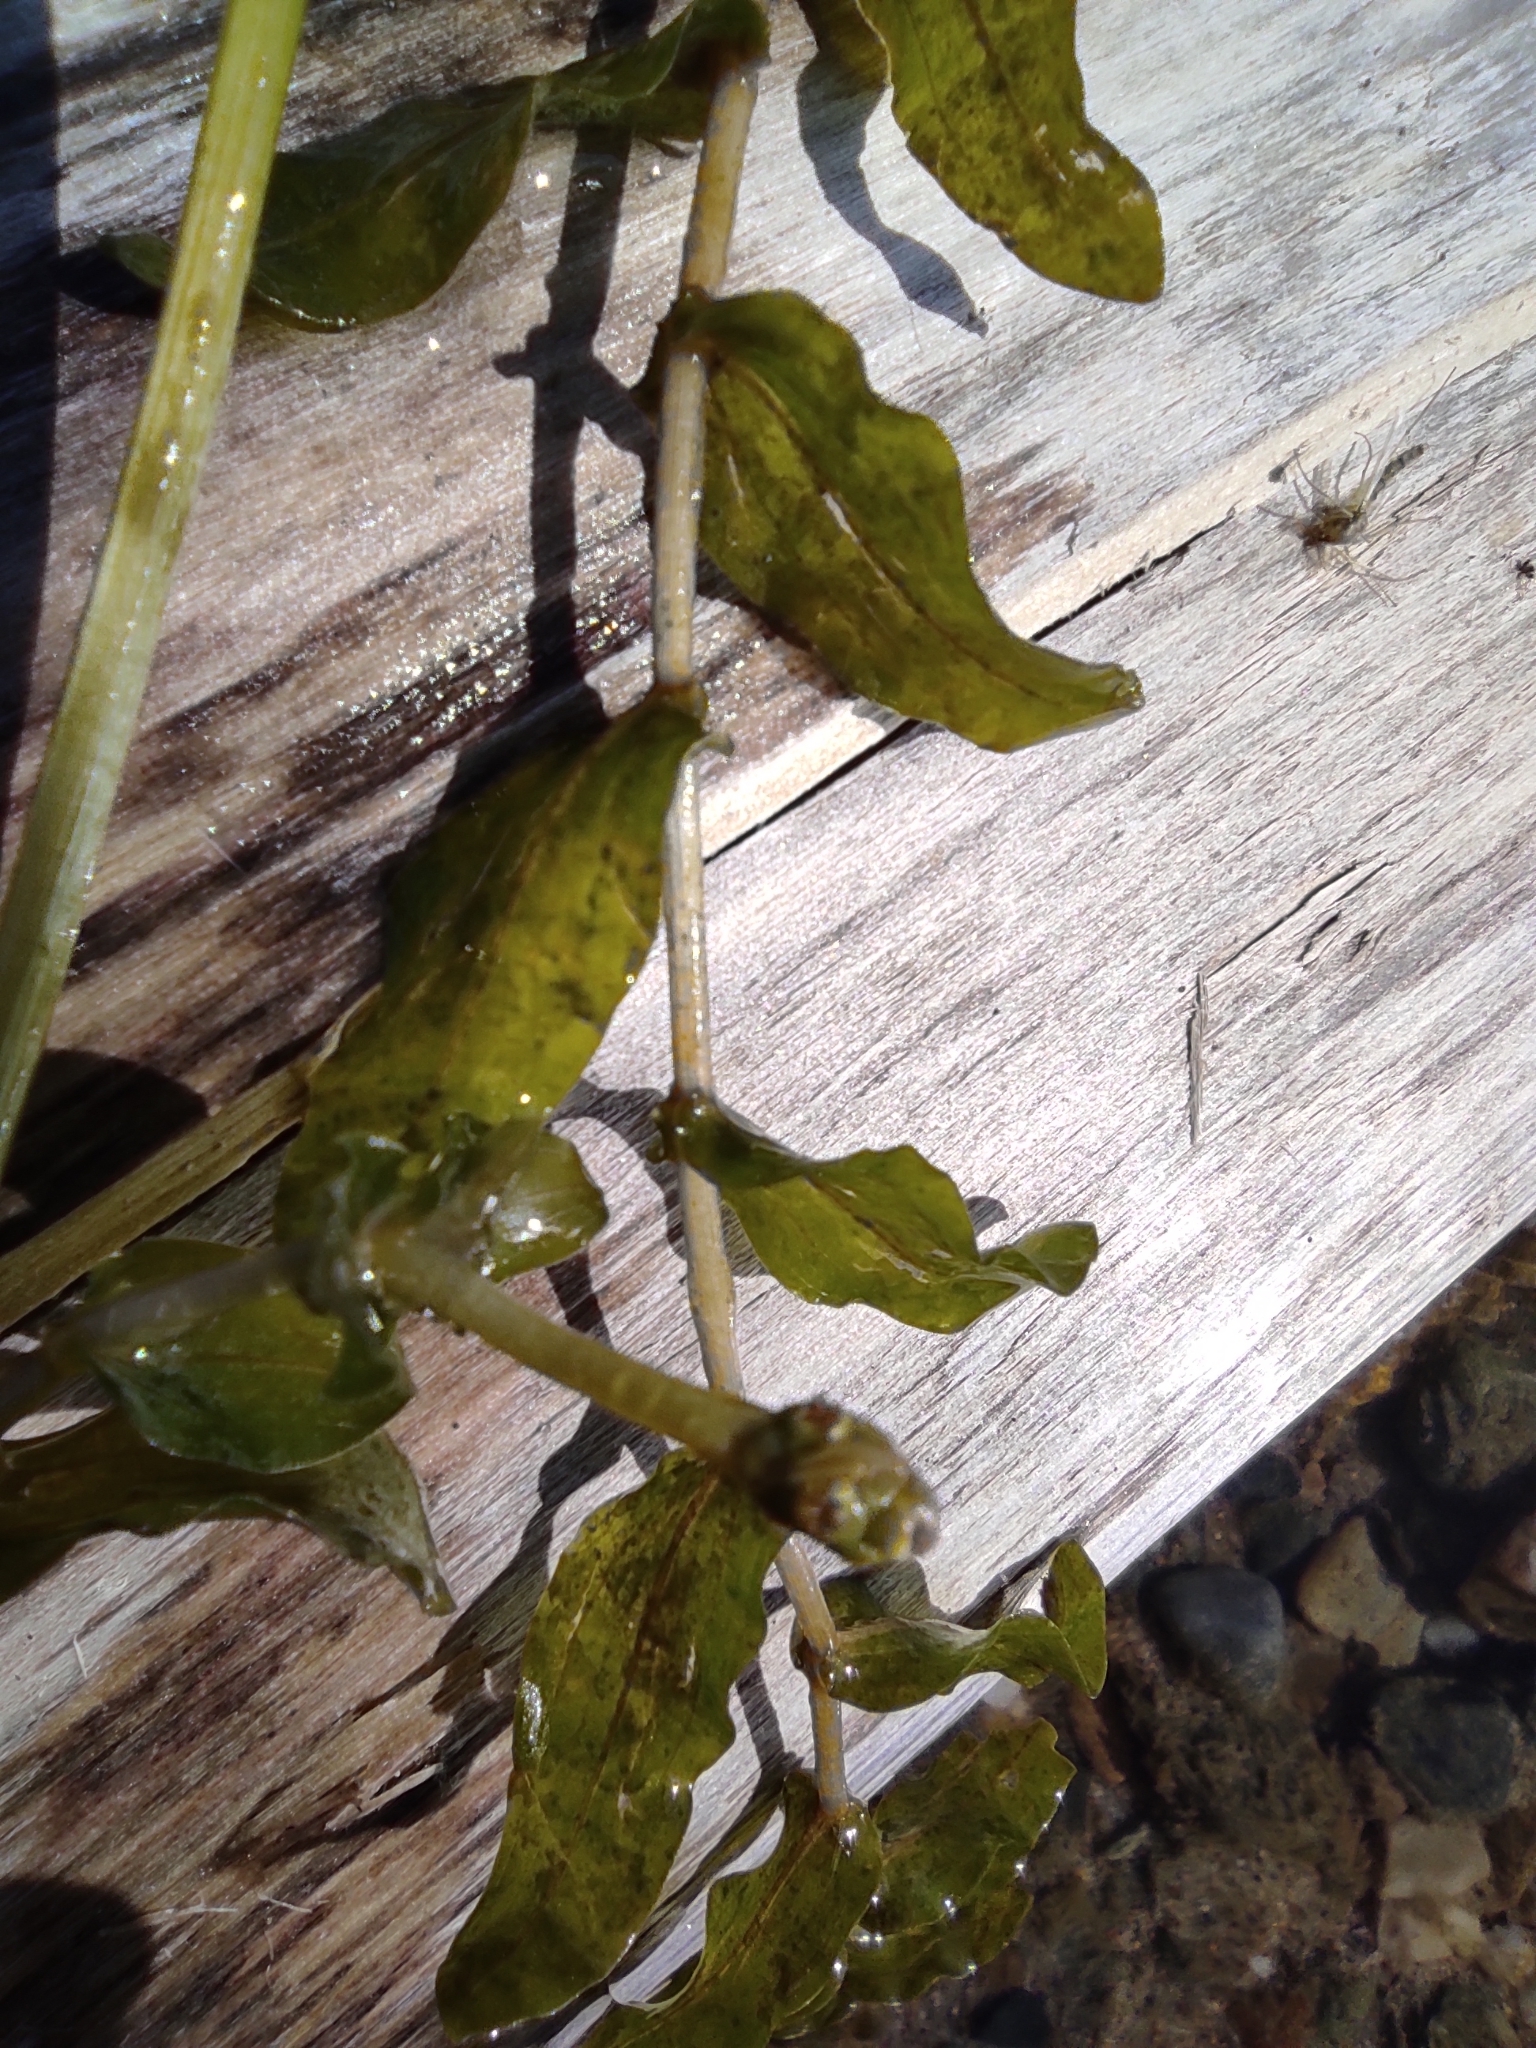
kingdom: Plantae
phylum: Tracheophyta
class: Liliopsida
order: Alismatales
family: Potamogetonaceae
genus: Potamogeton
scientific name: Potamogeton perfoliatus
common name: Perfoliate pondweed
